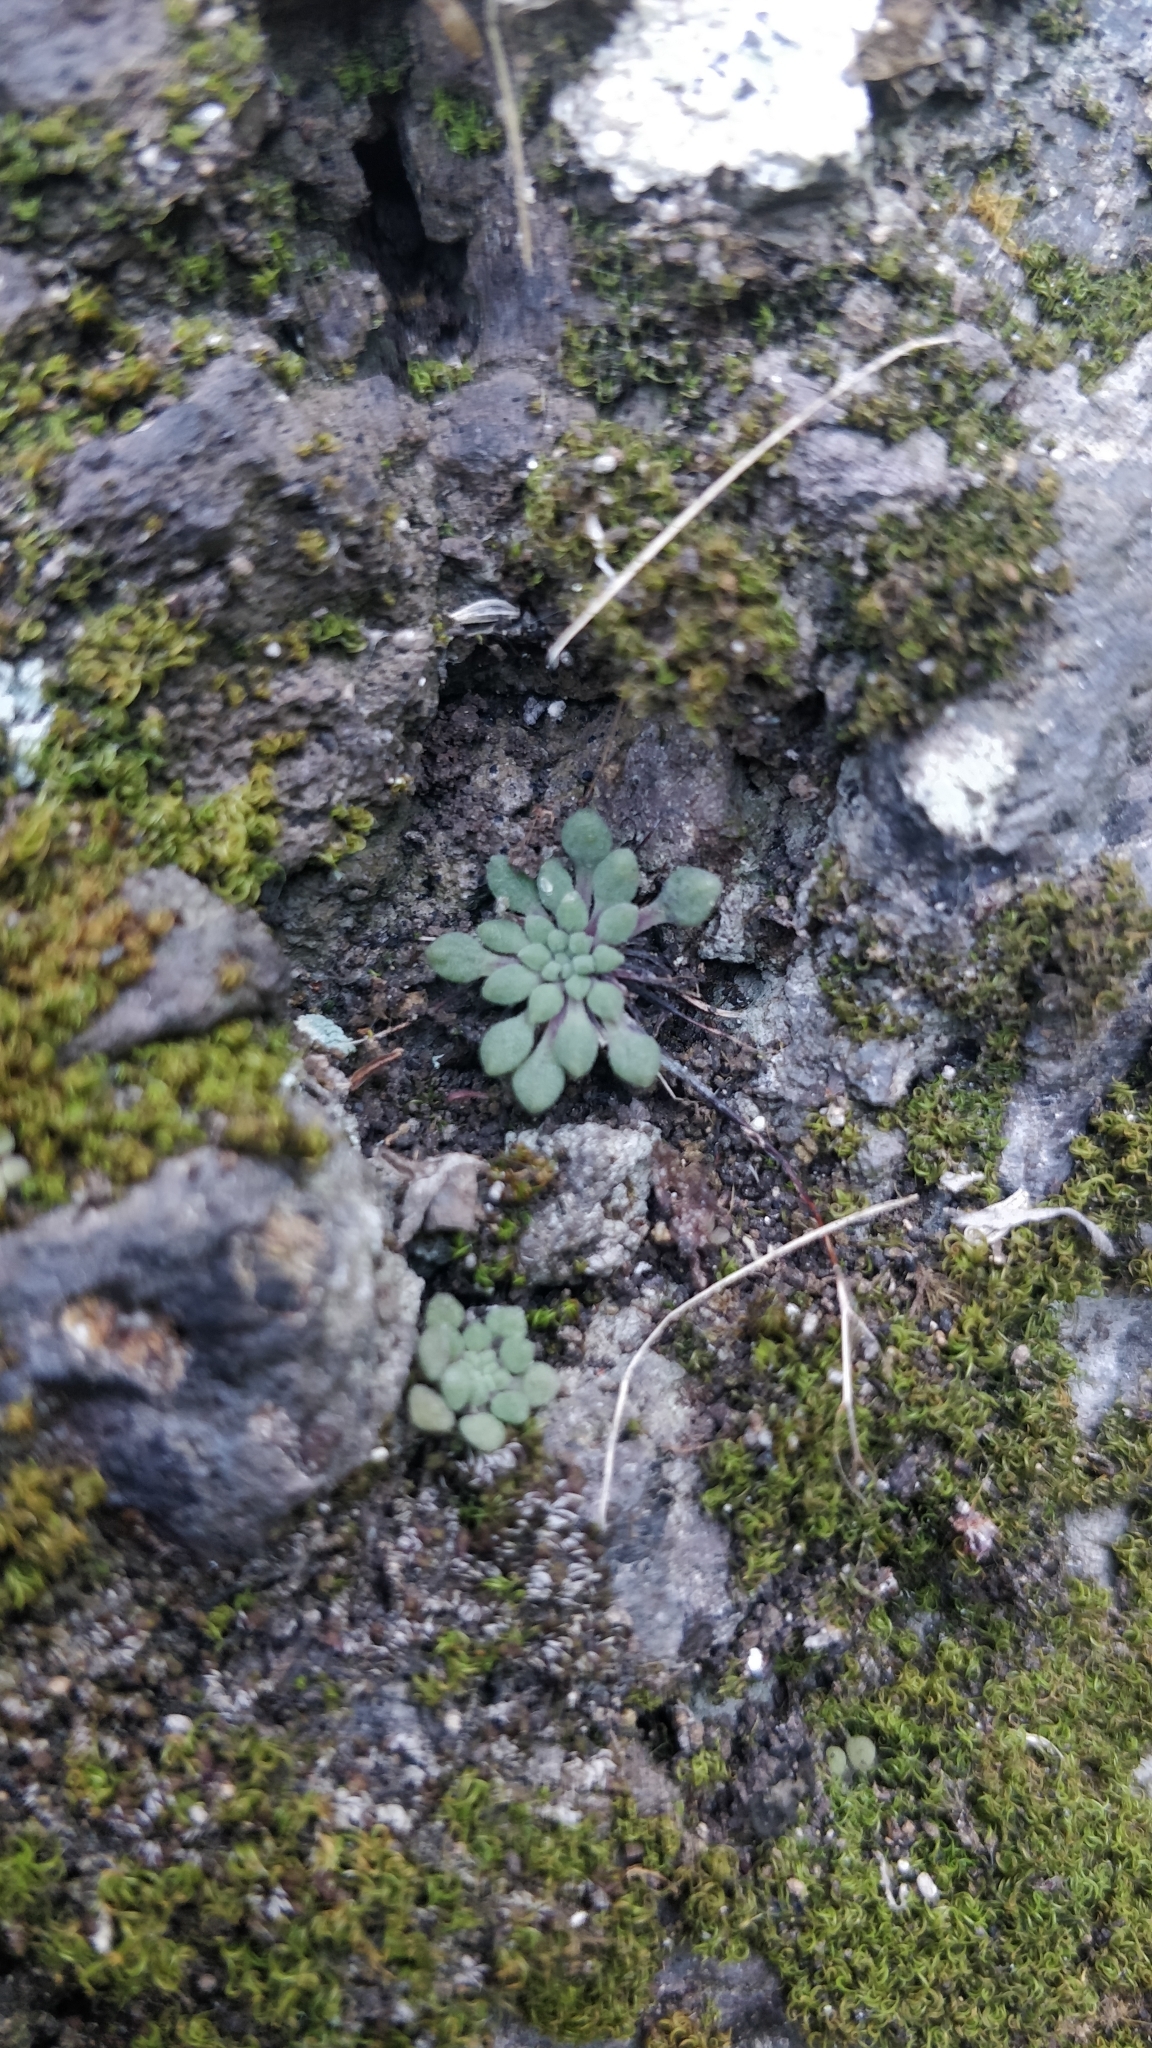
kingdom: Plantae
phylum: Tracheophyta
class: Magnoliopsida
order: Saxifragales
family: Crassulaceae
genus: Monanthes
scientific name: Monanthes brachycaulos
